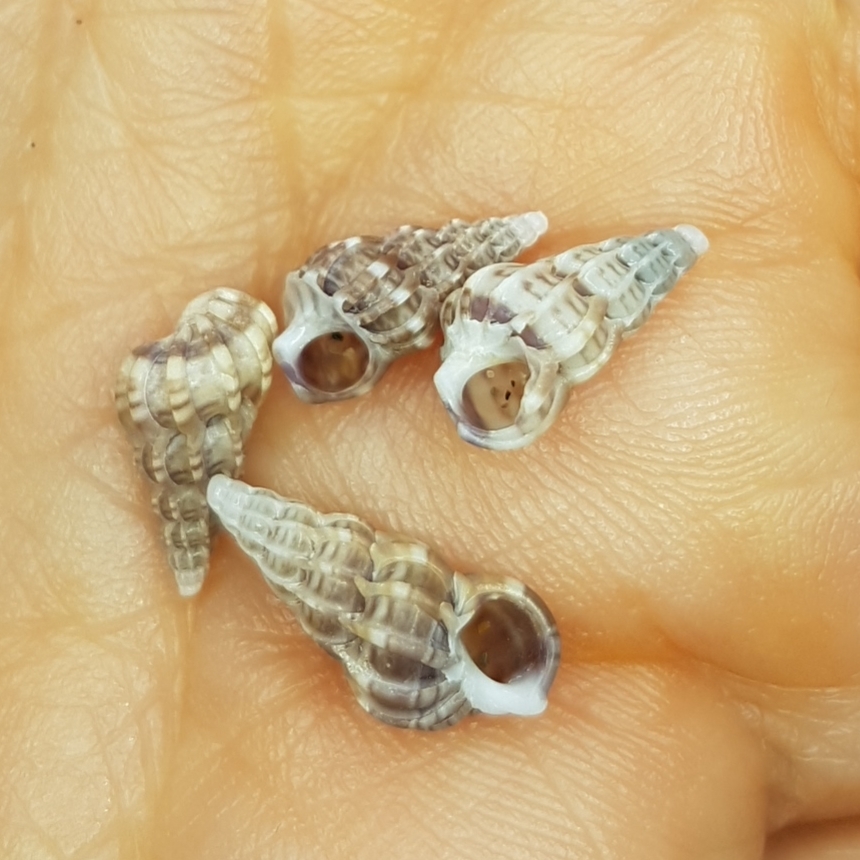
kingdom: Animalia
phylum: Mollusca
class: Gastropoda
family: Epitoniidae
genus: Epitonium
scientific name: Epitonium clathrus
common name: Common wentletrap
